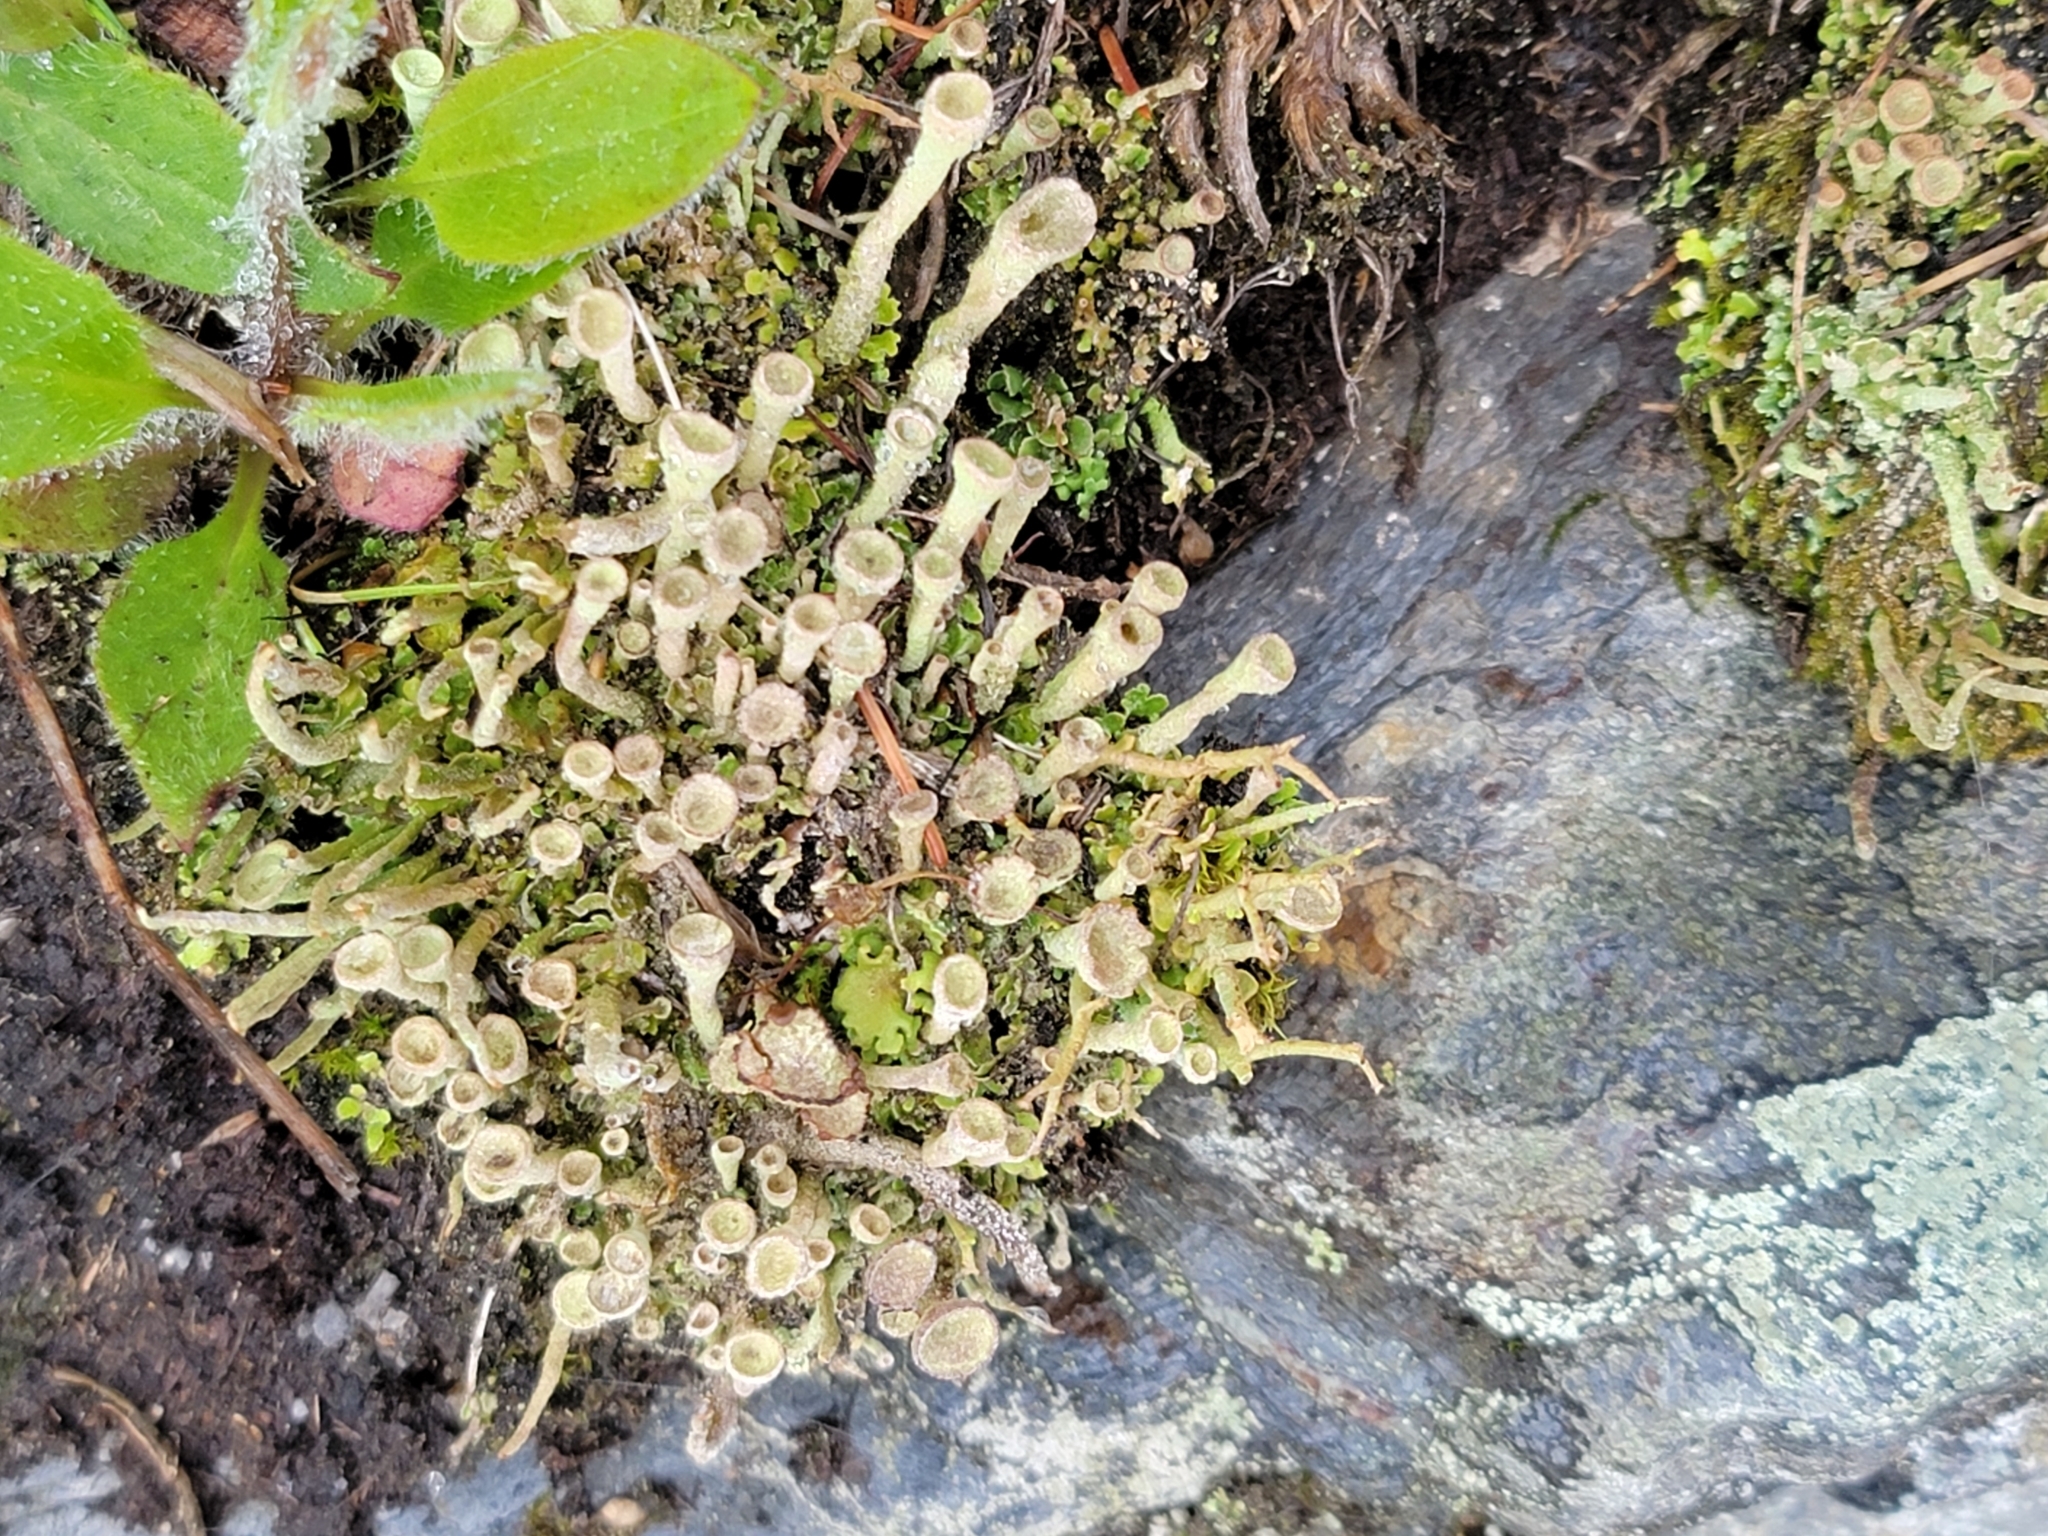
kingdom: Fungi
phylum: Ascomycota
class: Lecanoromycetes
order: Lecanorales
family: Cladoniaceae
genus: Cladonia
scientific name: Cladonia fimbriata
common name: Powdered trumpet lichen
